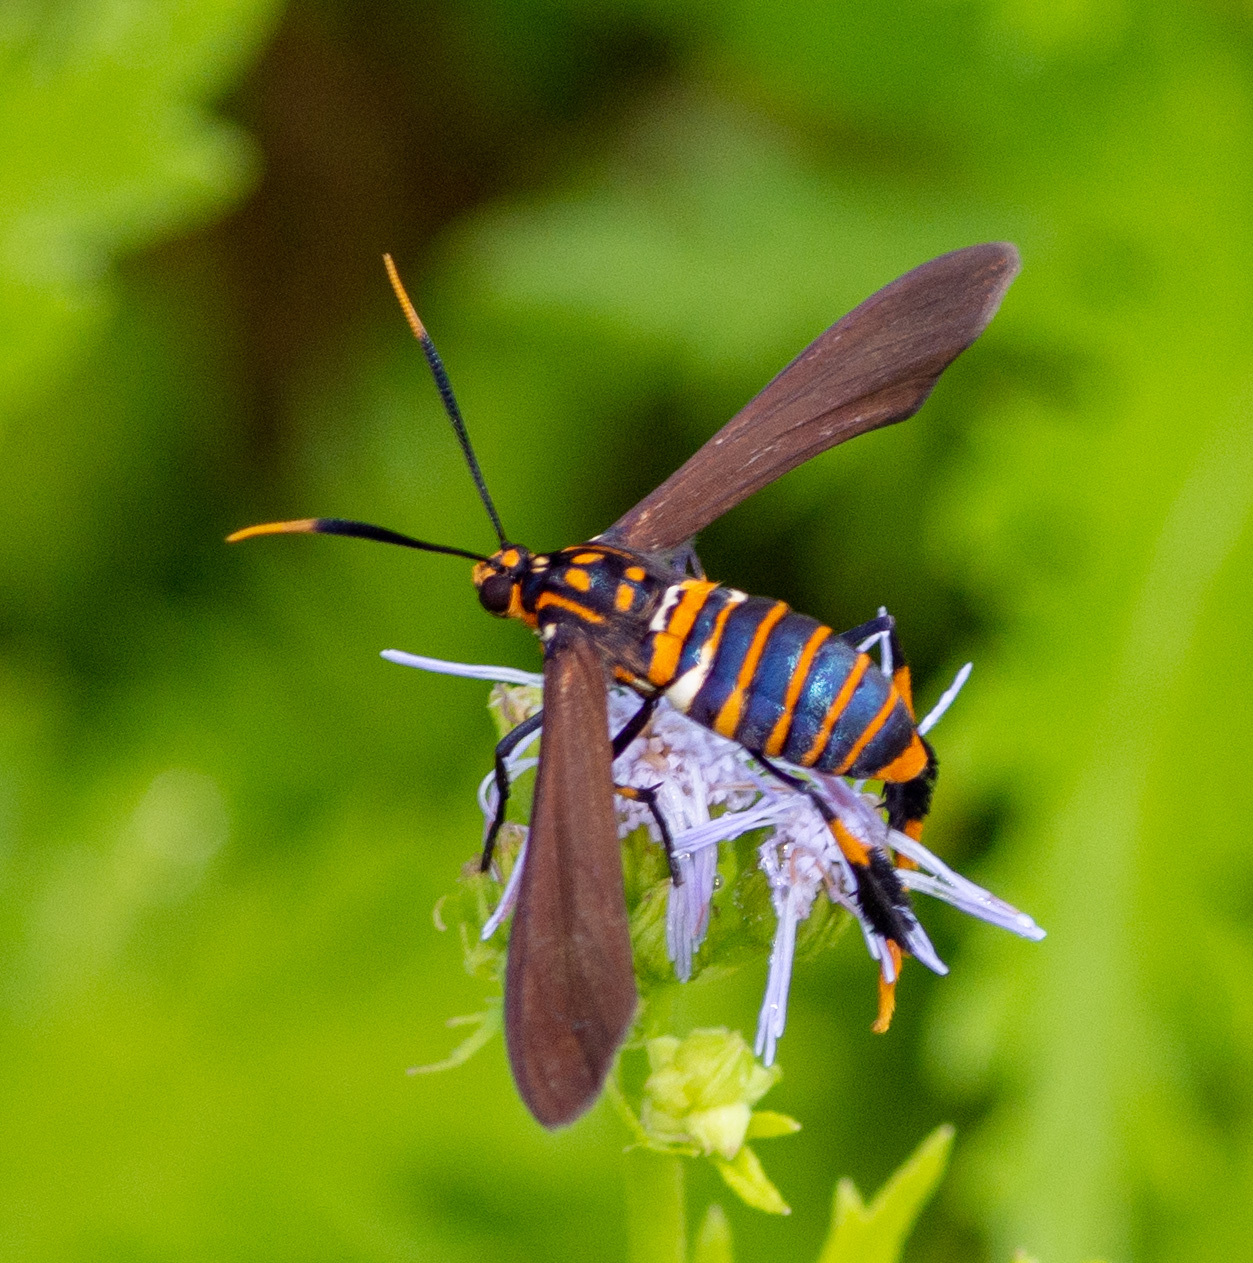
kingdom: Animalia
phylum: Arthropoda
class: Insecta
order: Lepidoptera
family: Erebidae
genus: Horama
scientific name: Horama panthalon
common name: Texas wasp moth
